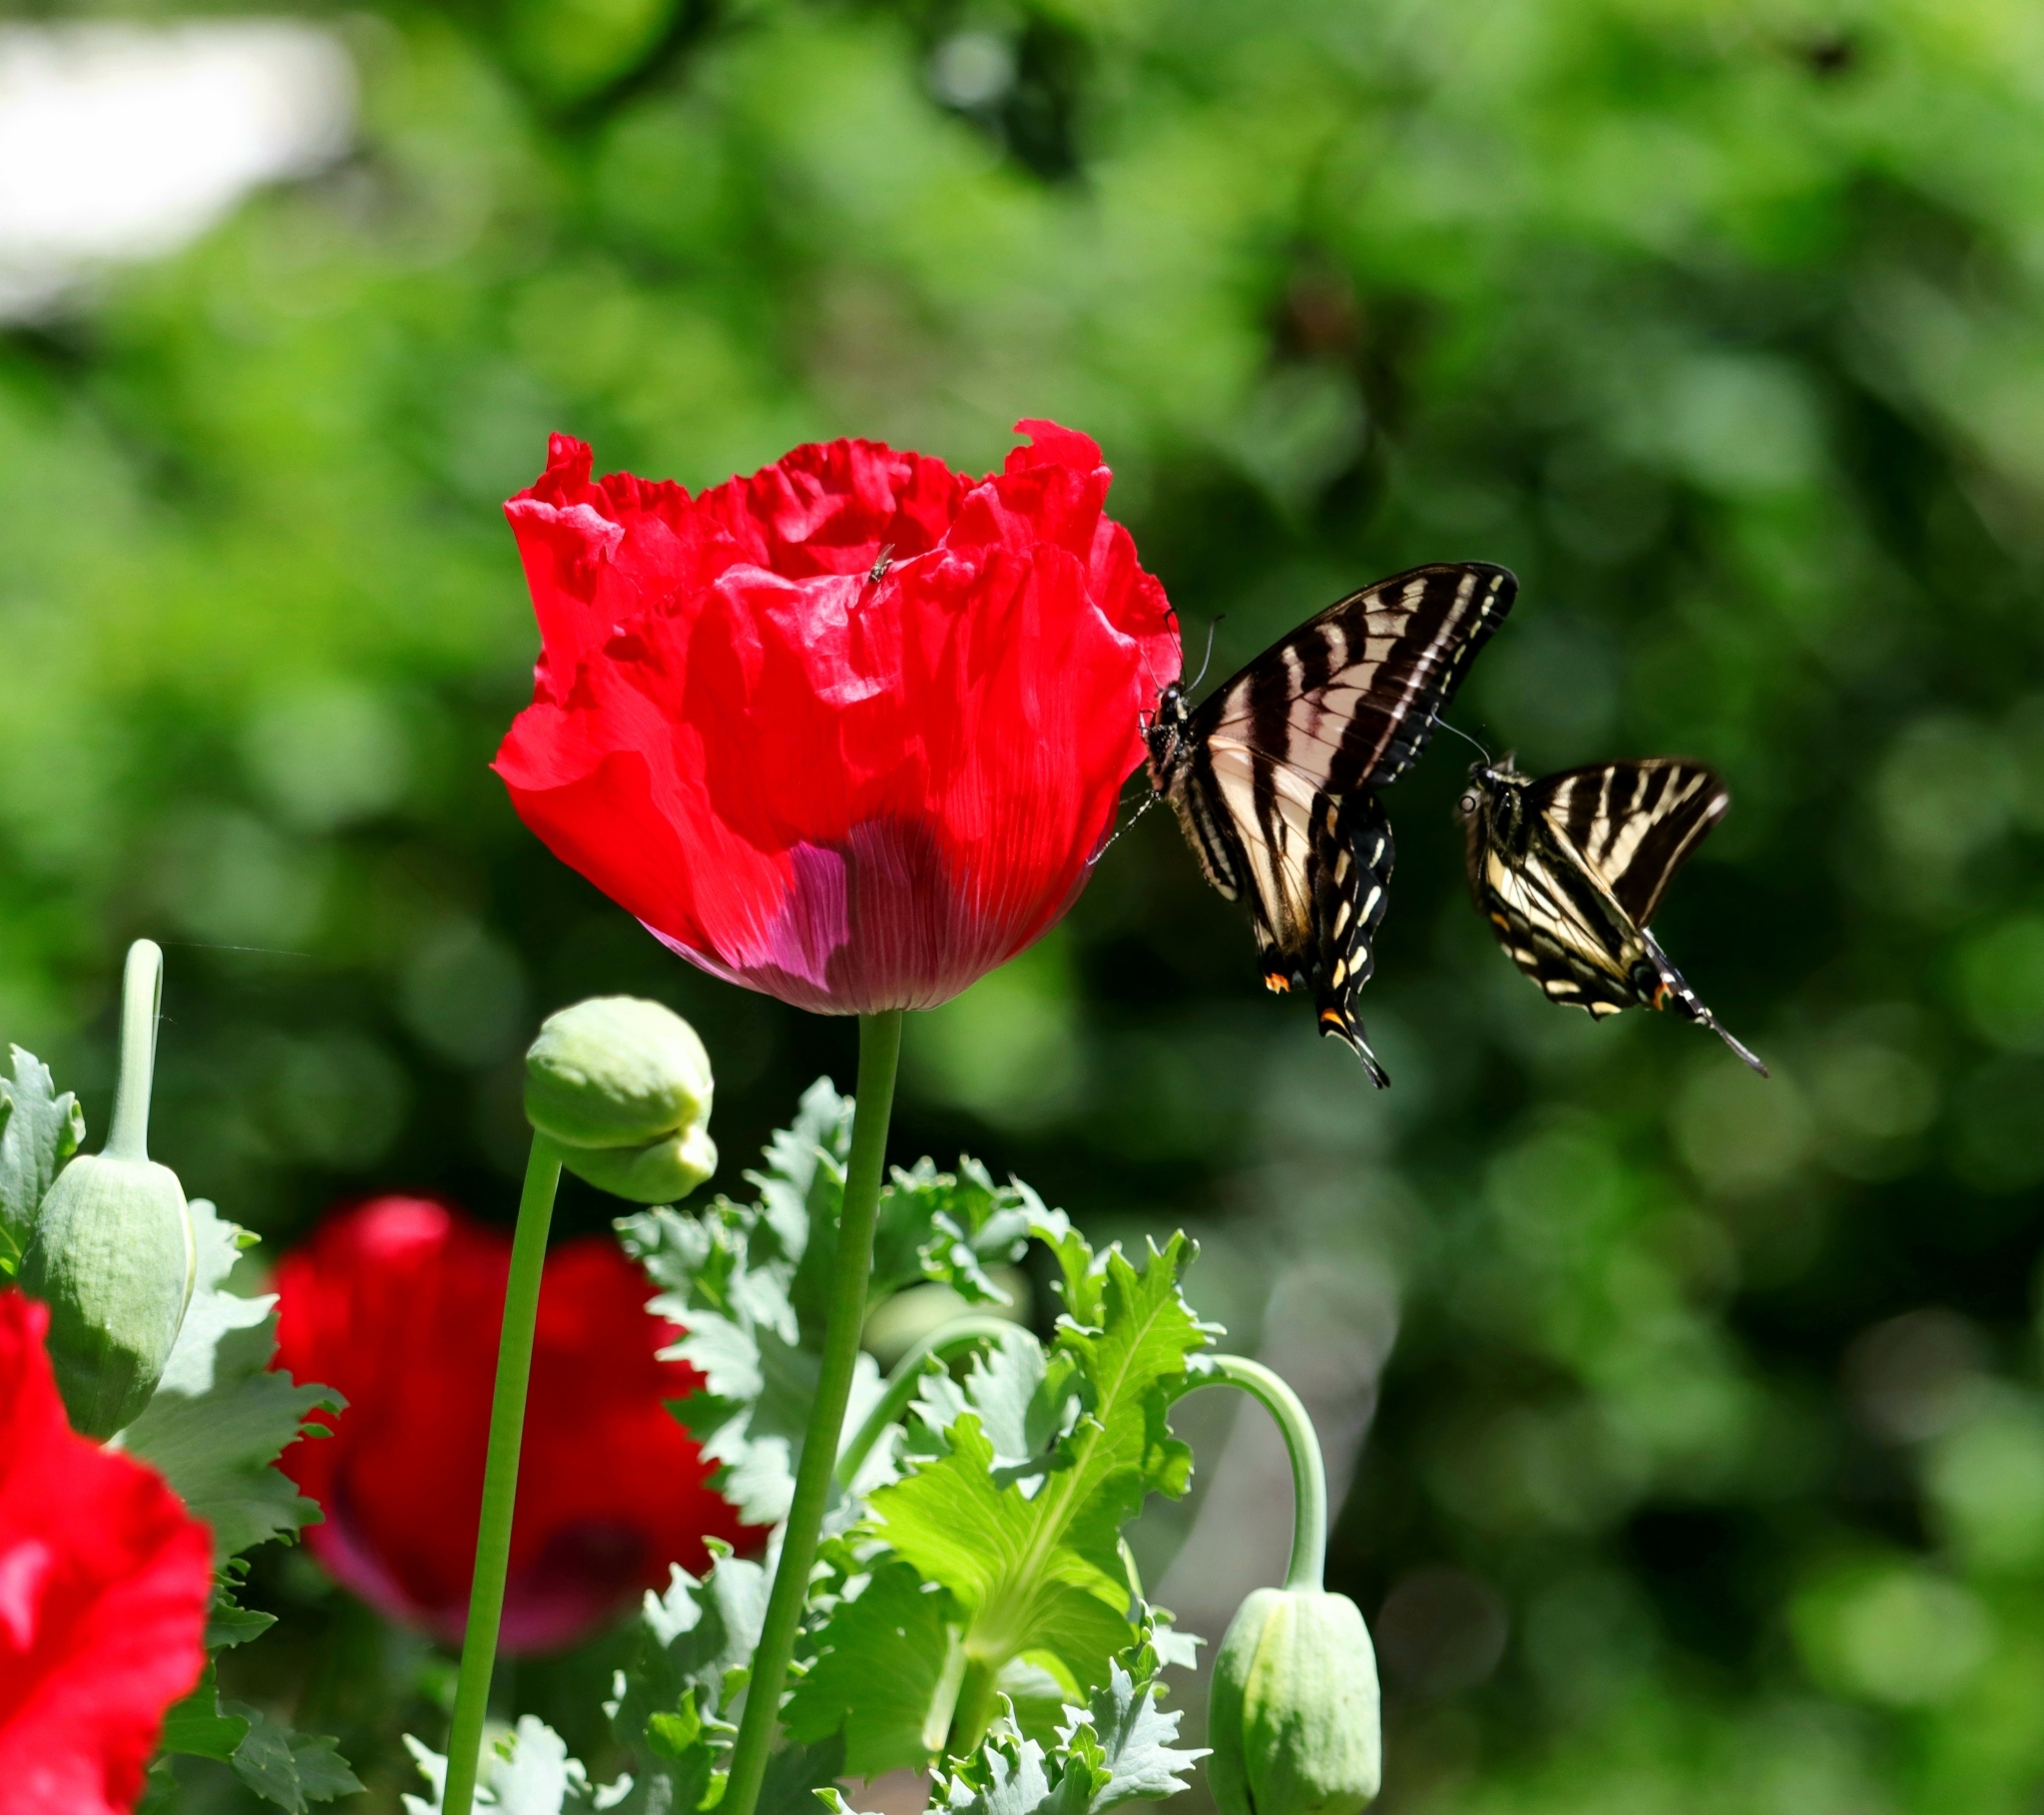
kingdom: Animalia
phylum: Arthropoda
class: Insecta
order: Lepidoptera
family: Papilionidae
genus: Papilio
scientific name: Papilio eurymedon
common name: Pale tiger swallowtail
